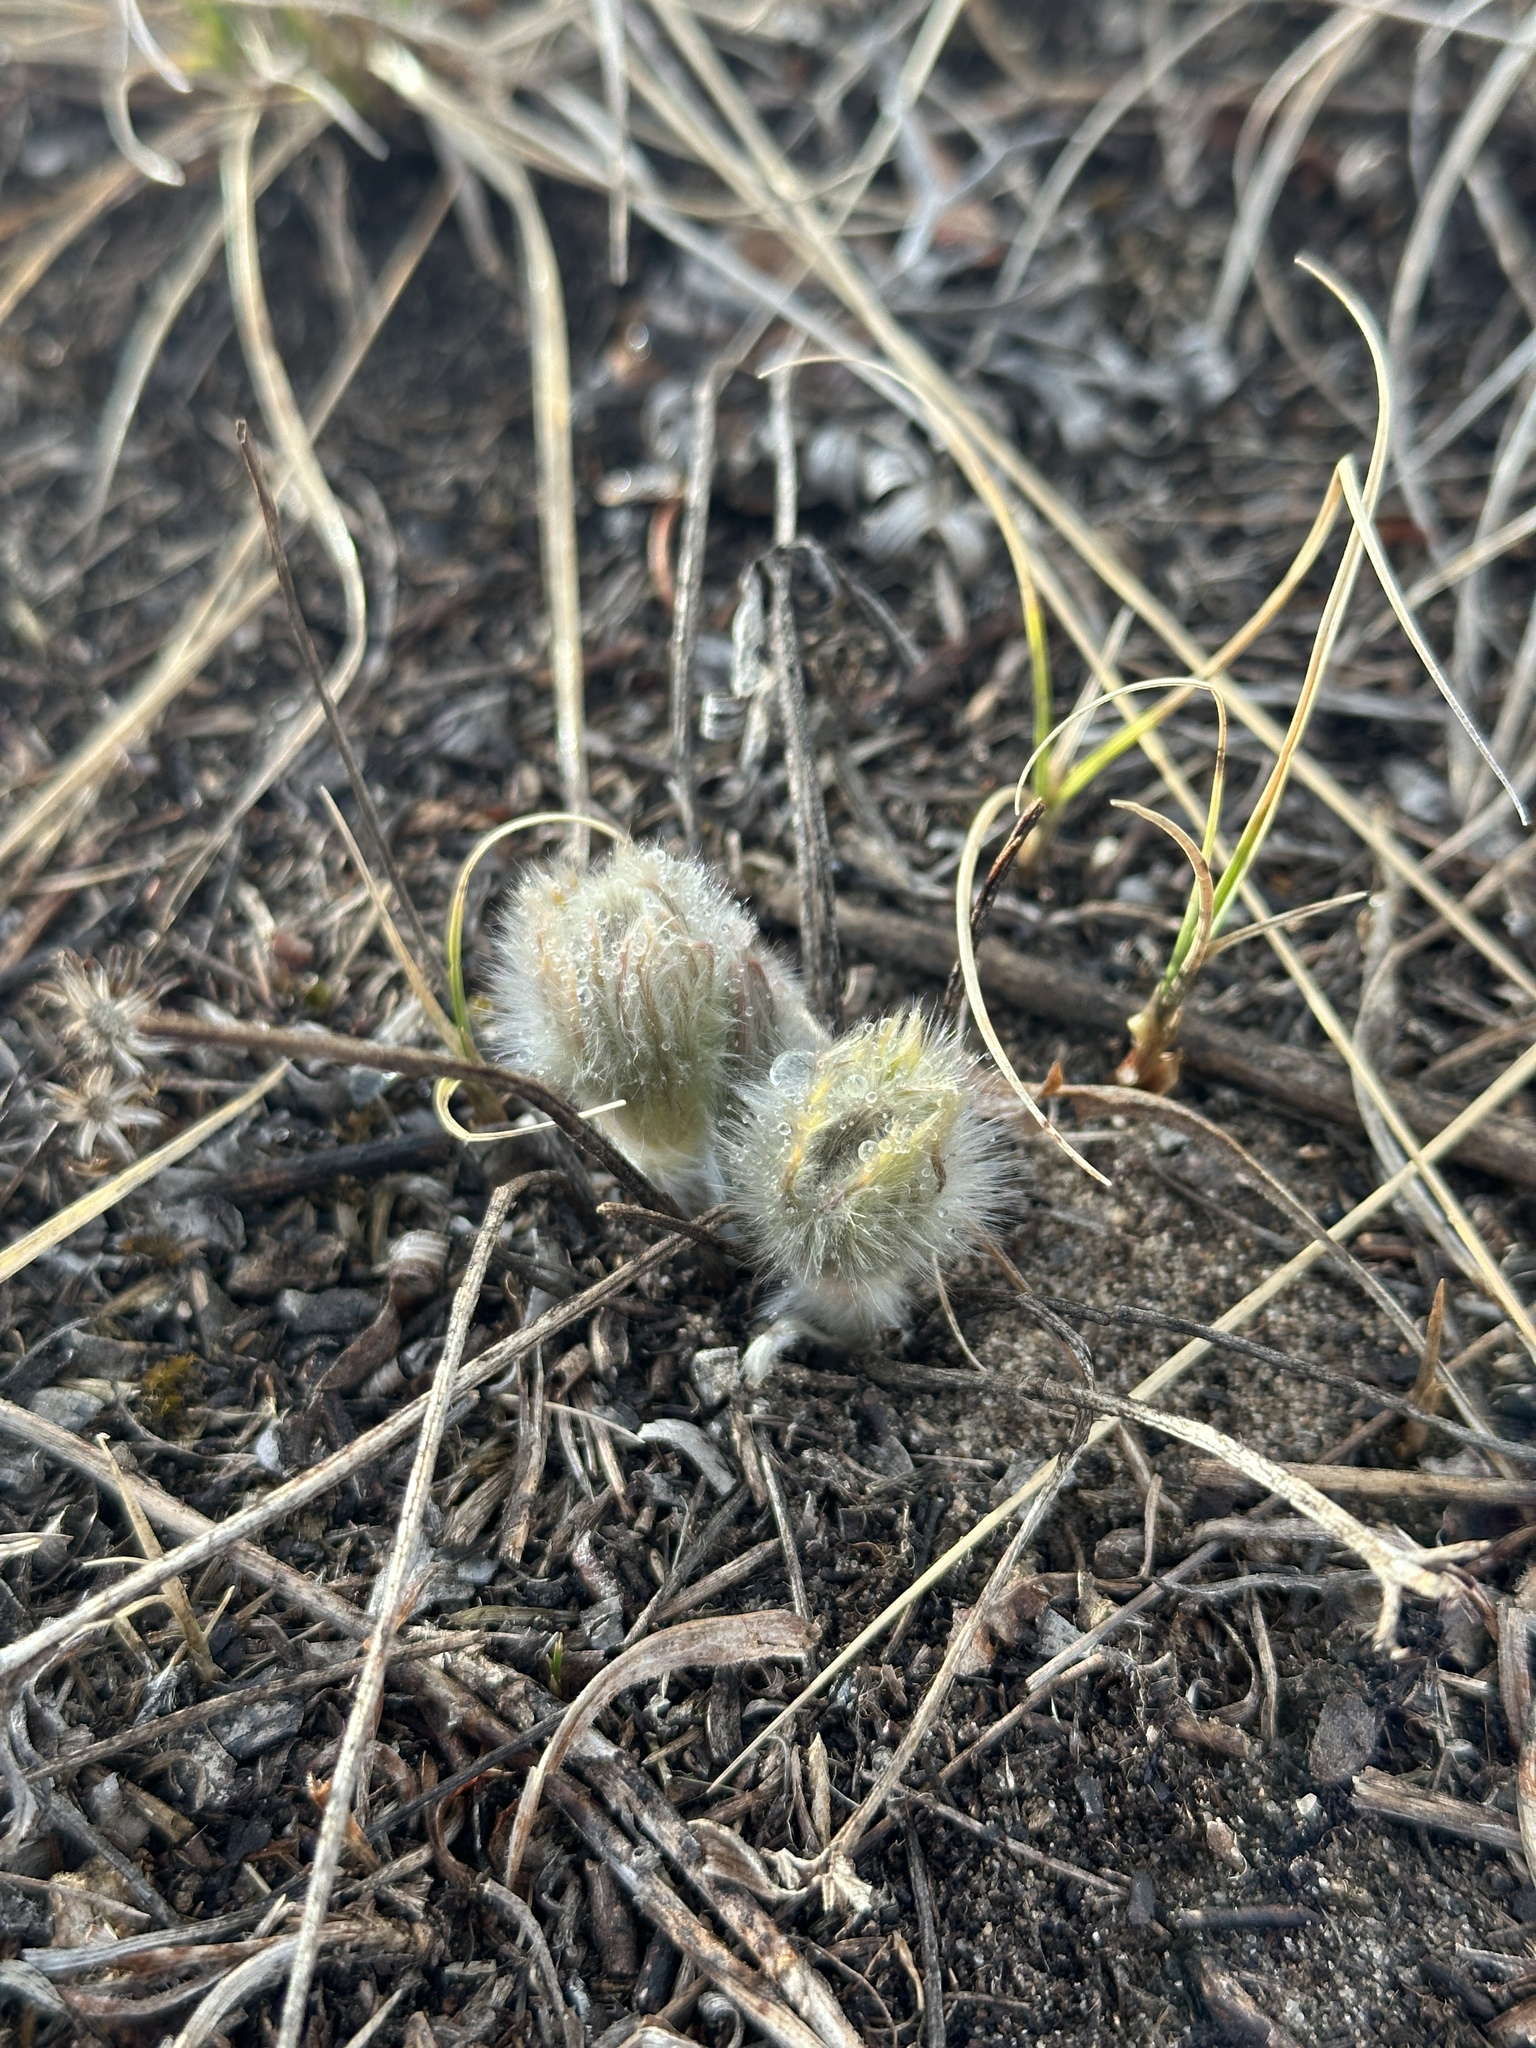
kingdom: Plantae
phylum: Tracheophyta
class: Magnoliopsida
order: Ranunculales
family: Ranunculaceae
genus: Pulsatilla
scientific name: Pulsatilla nuttalliana
